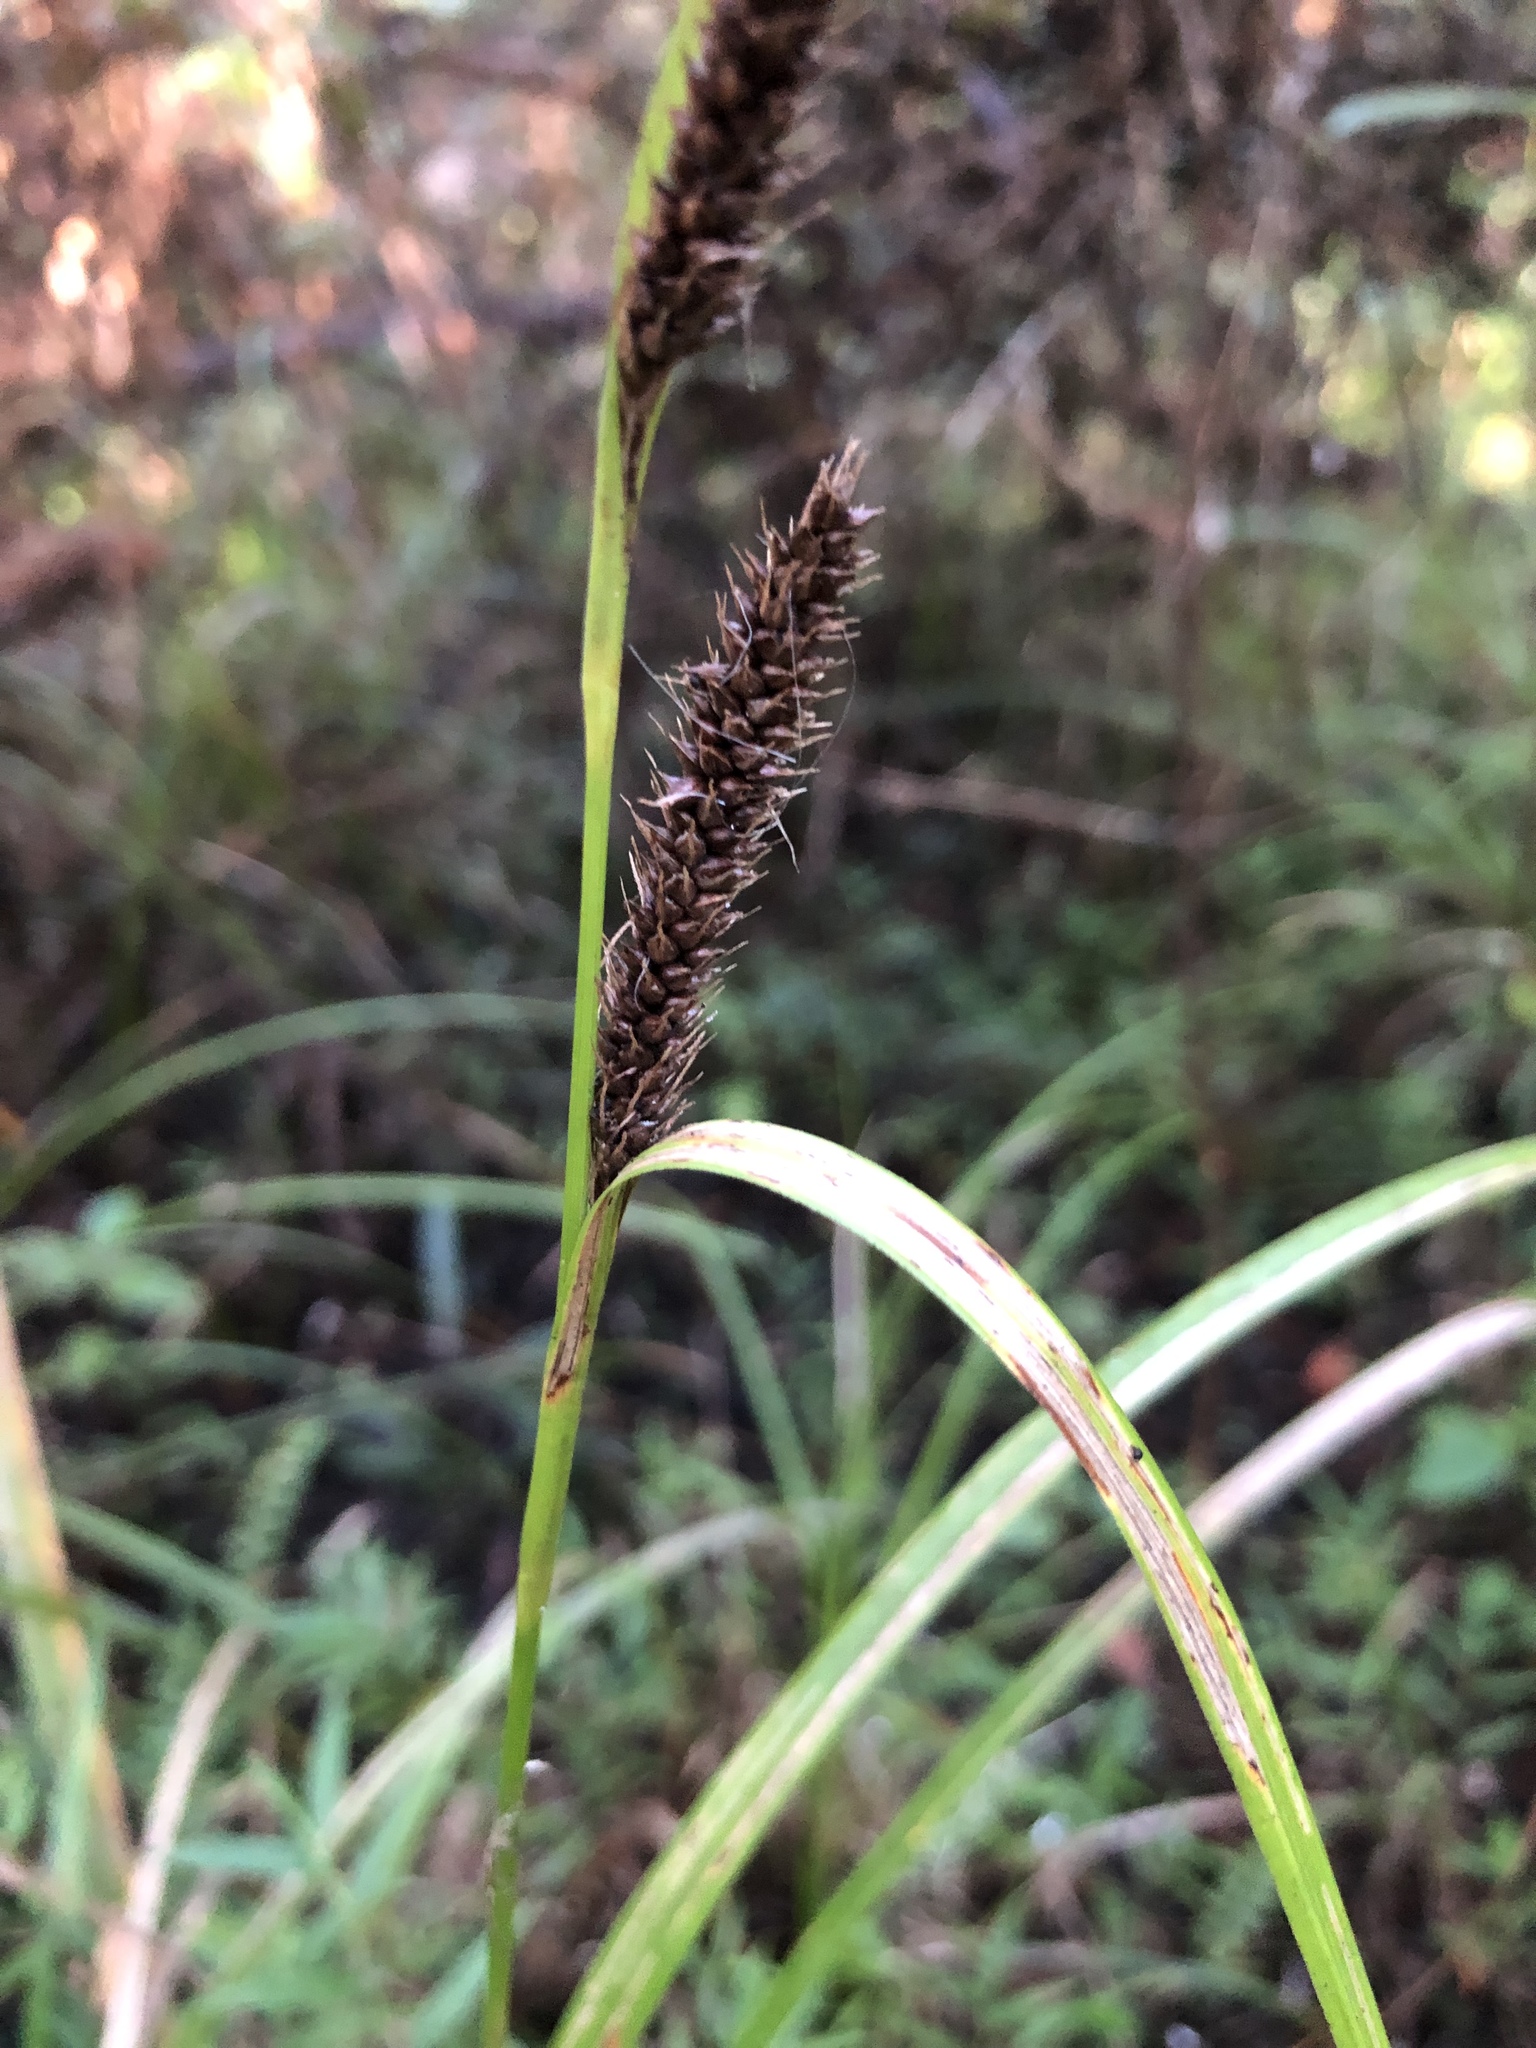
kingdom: Plantae
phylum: Tracheophyta
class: Liliopsida
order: Poales
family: Cyperaceae
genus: Carex
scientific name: Carex lambertiana
